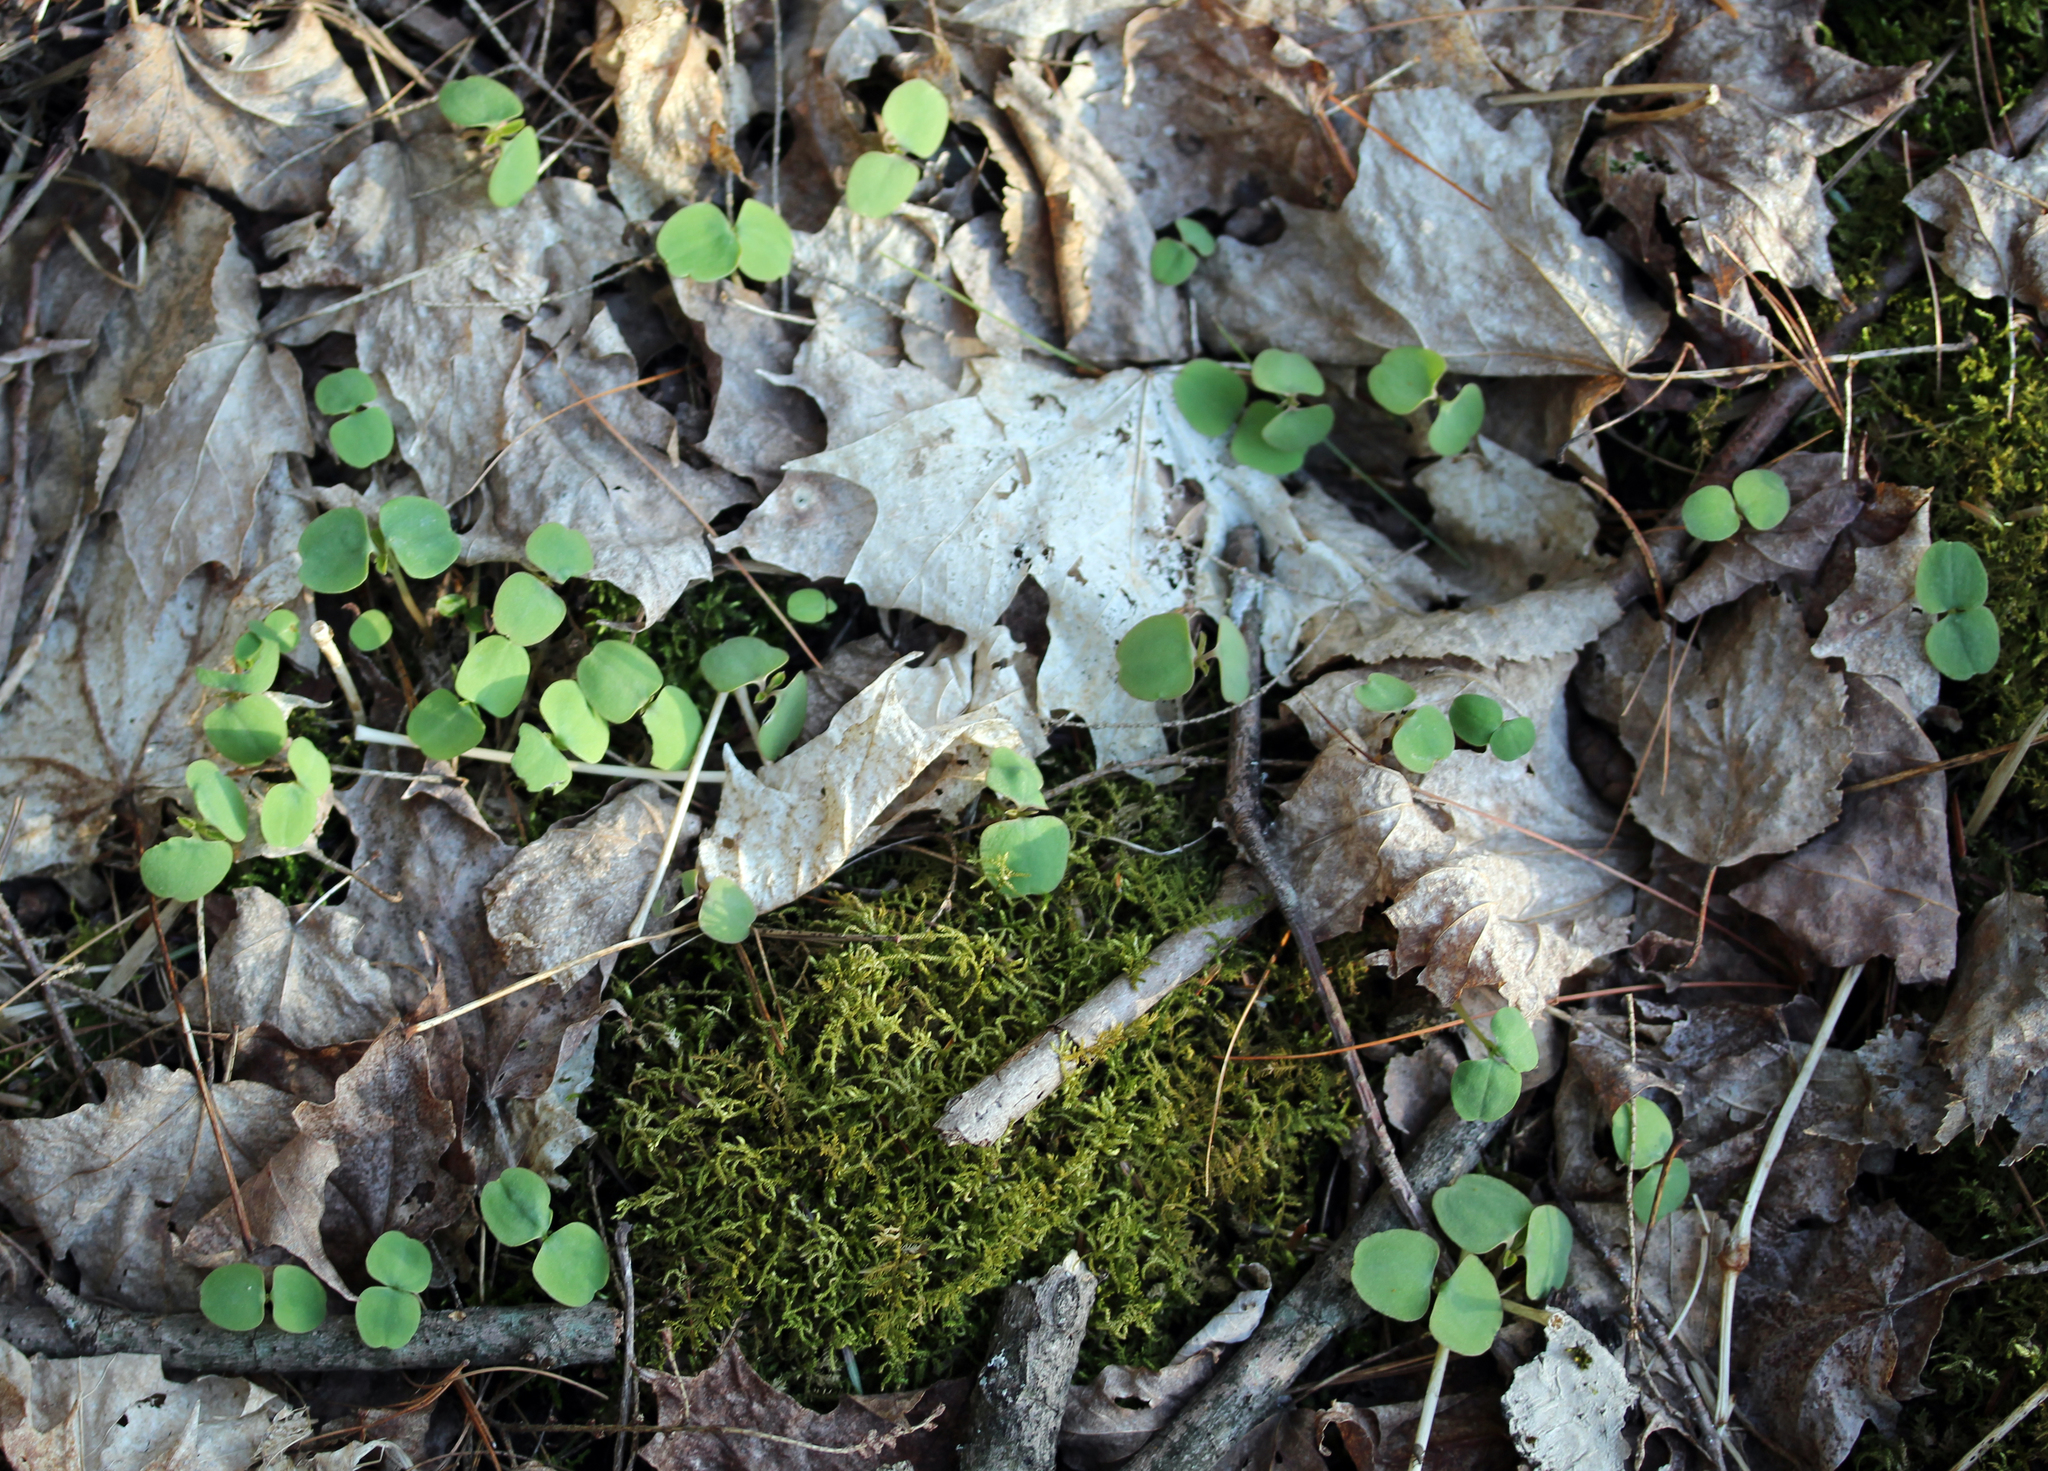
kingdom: Plantae
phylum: Tracheophyta
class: Magnoliopsida
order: Ericales
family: Balsaminaceae
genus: Impatiens
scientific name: Impatiens capensis
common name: Orange balsam
